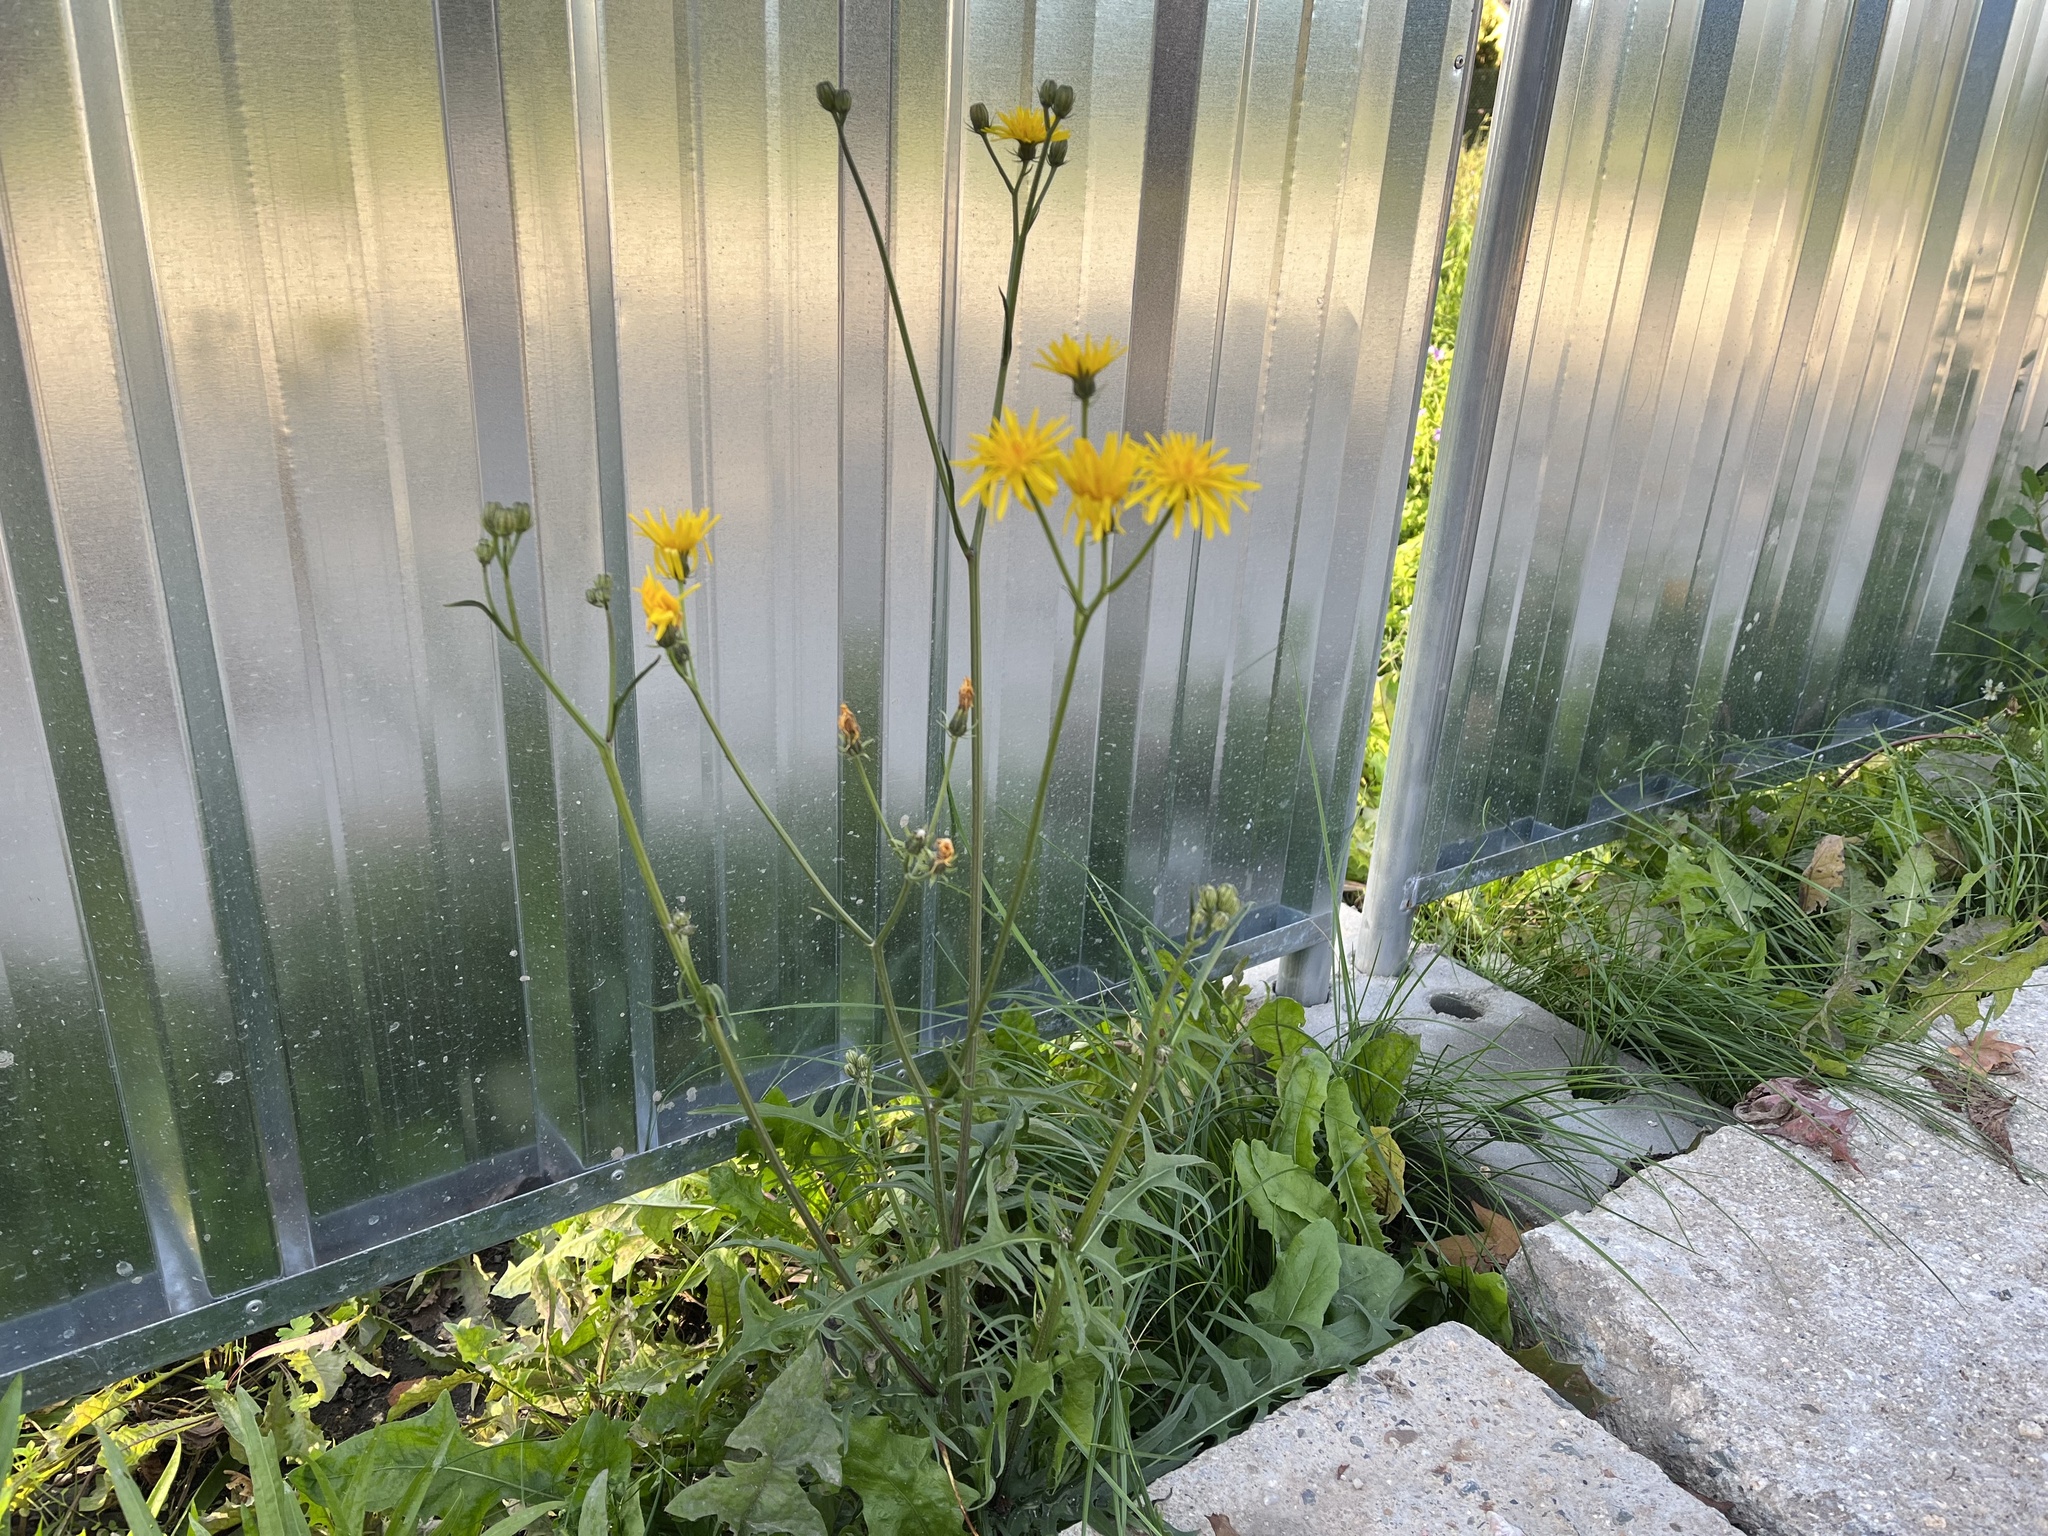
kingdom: Plantae
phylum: Tracheophyta
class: Magnoliopsida
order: Asterales
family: Asteraceae
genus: Crepis
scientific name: Crepis biennis
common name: Rough hawk's-beard
